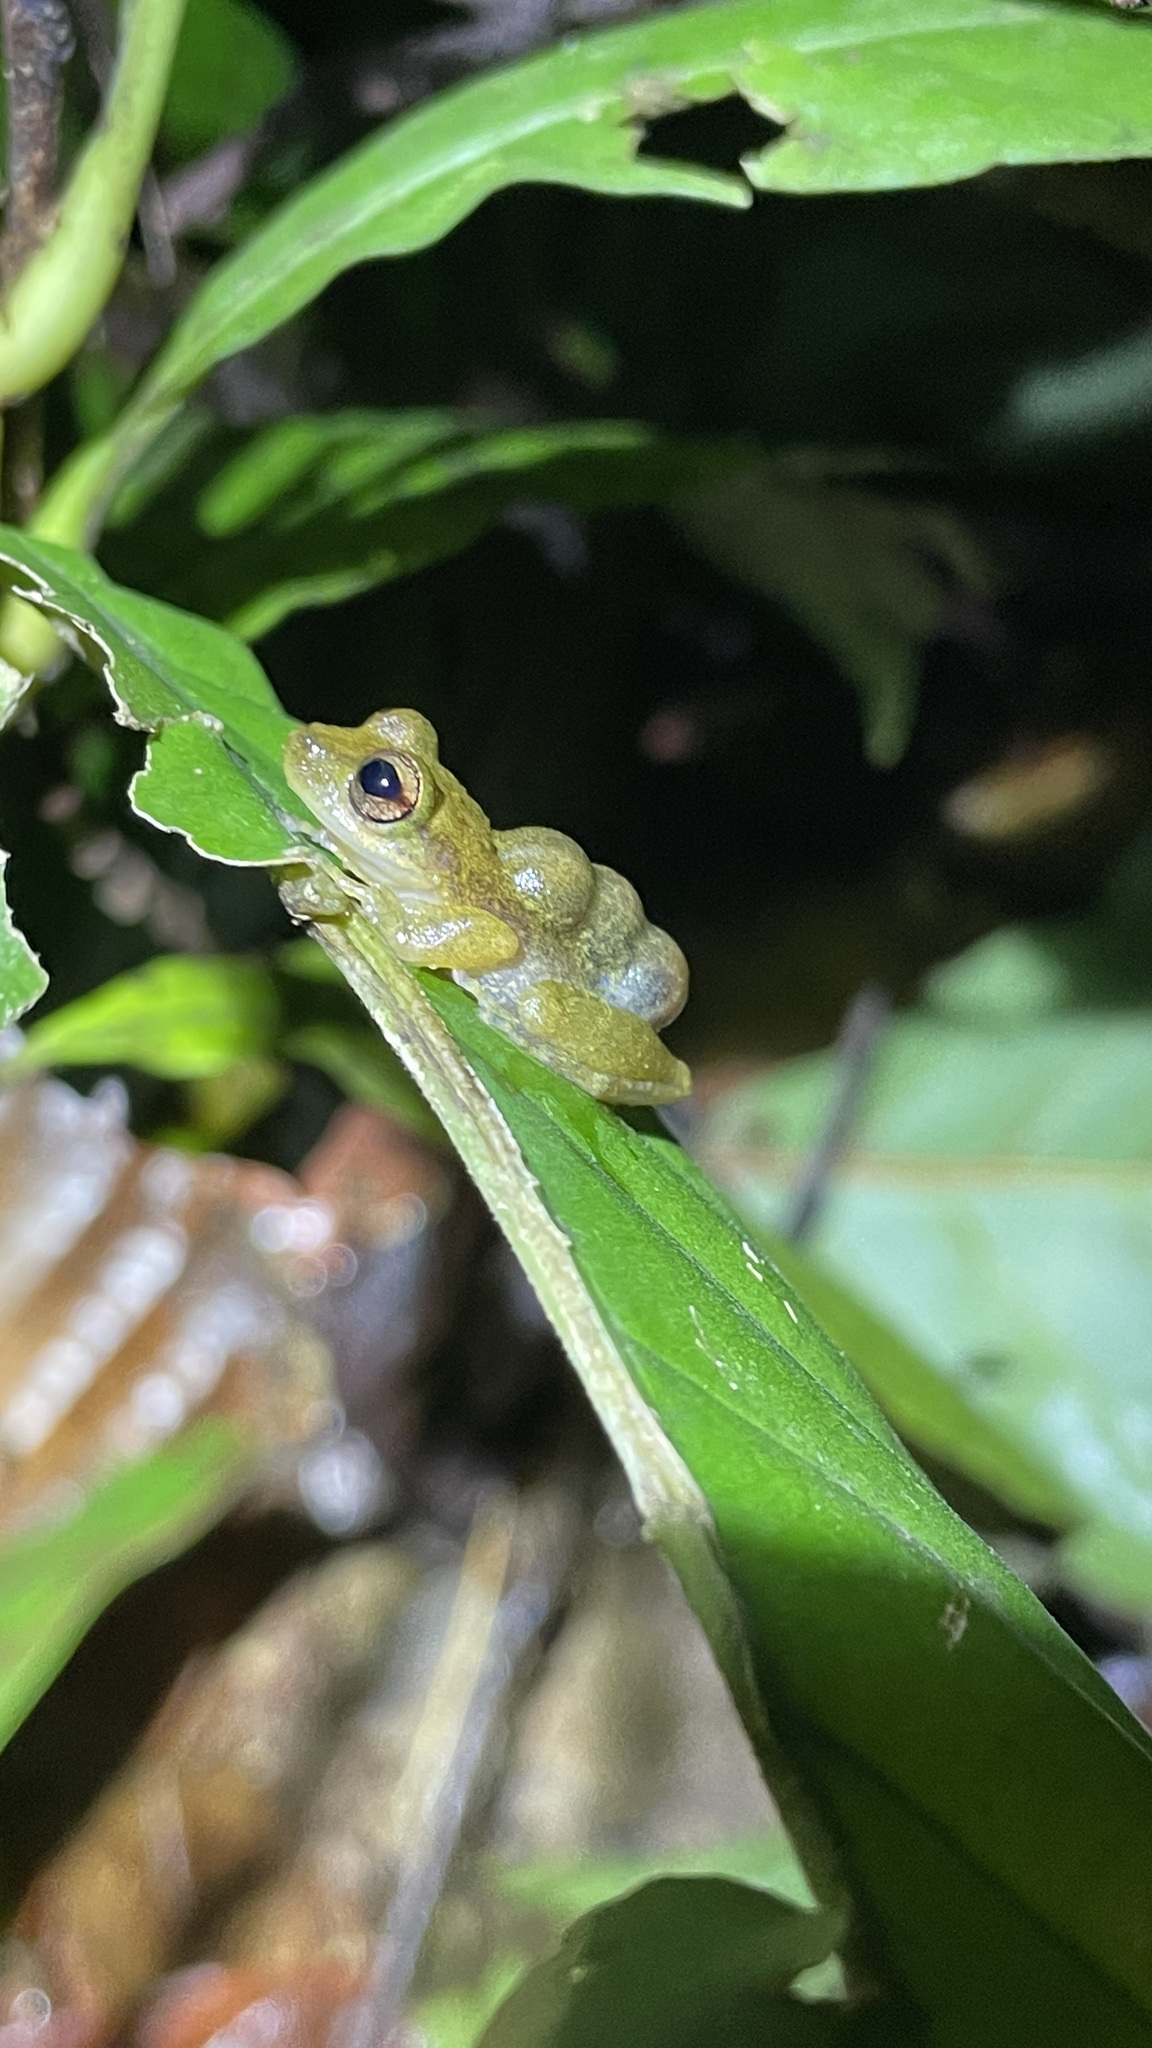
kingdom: Animalia
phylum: Chordata
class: Amphibia
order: Anura
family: Hemiphractidae
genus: Flectonotus
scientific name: Flectonotus fitzgeraldi
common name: Marsupial frog
